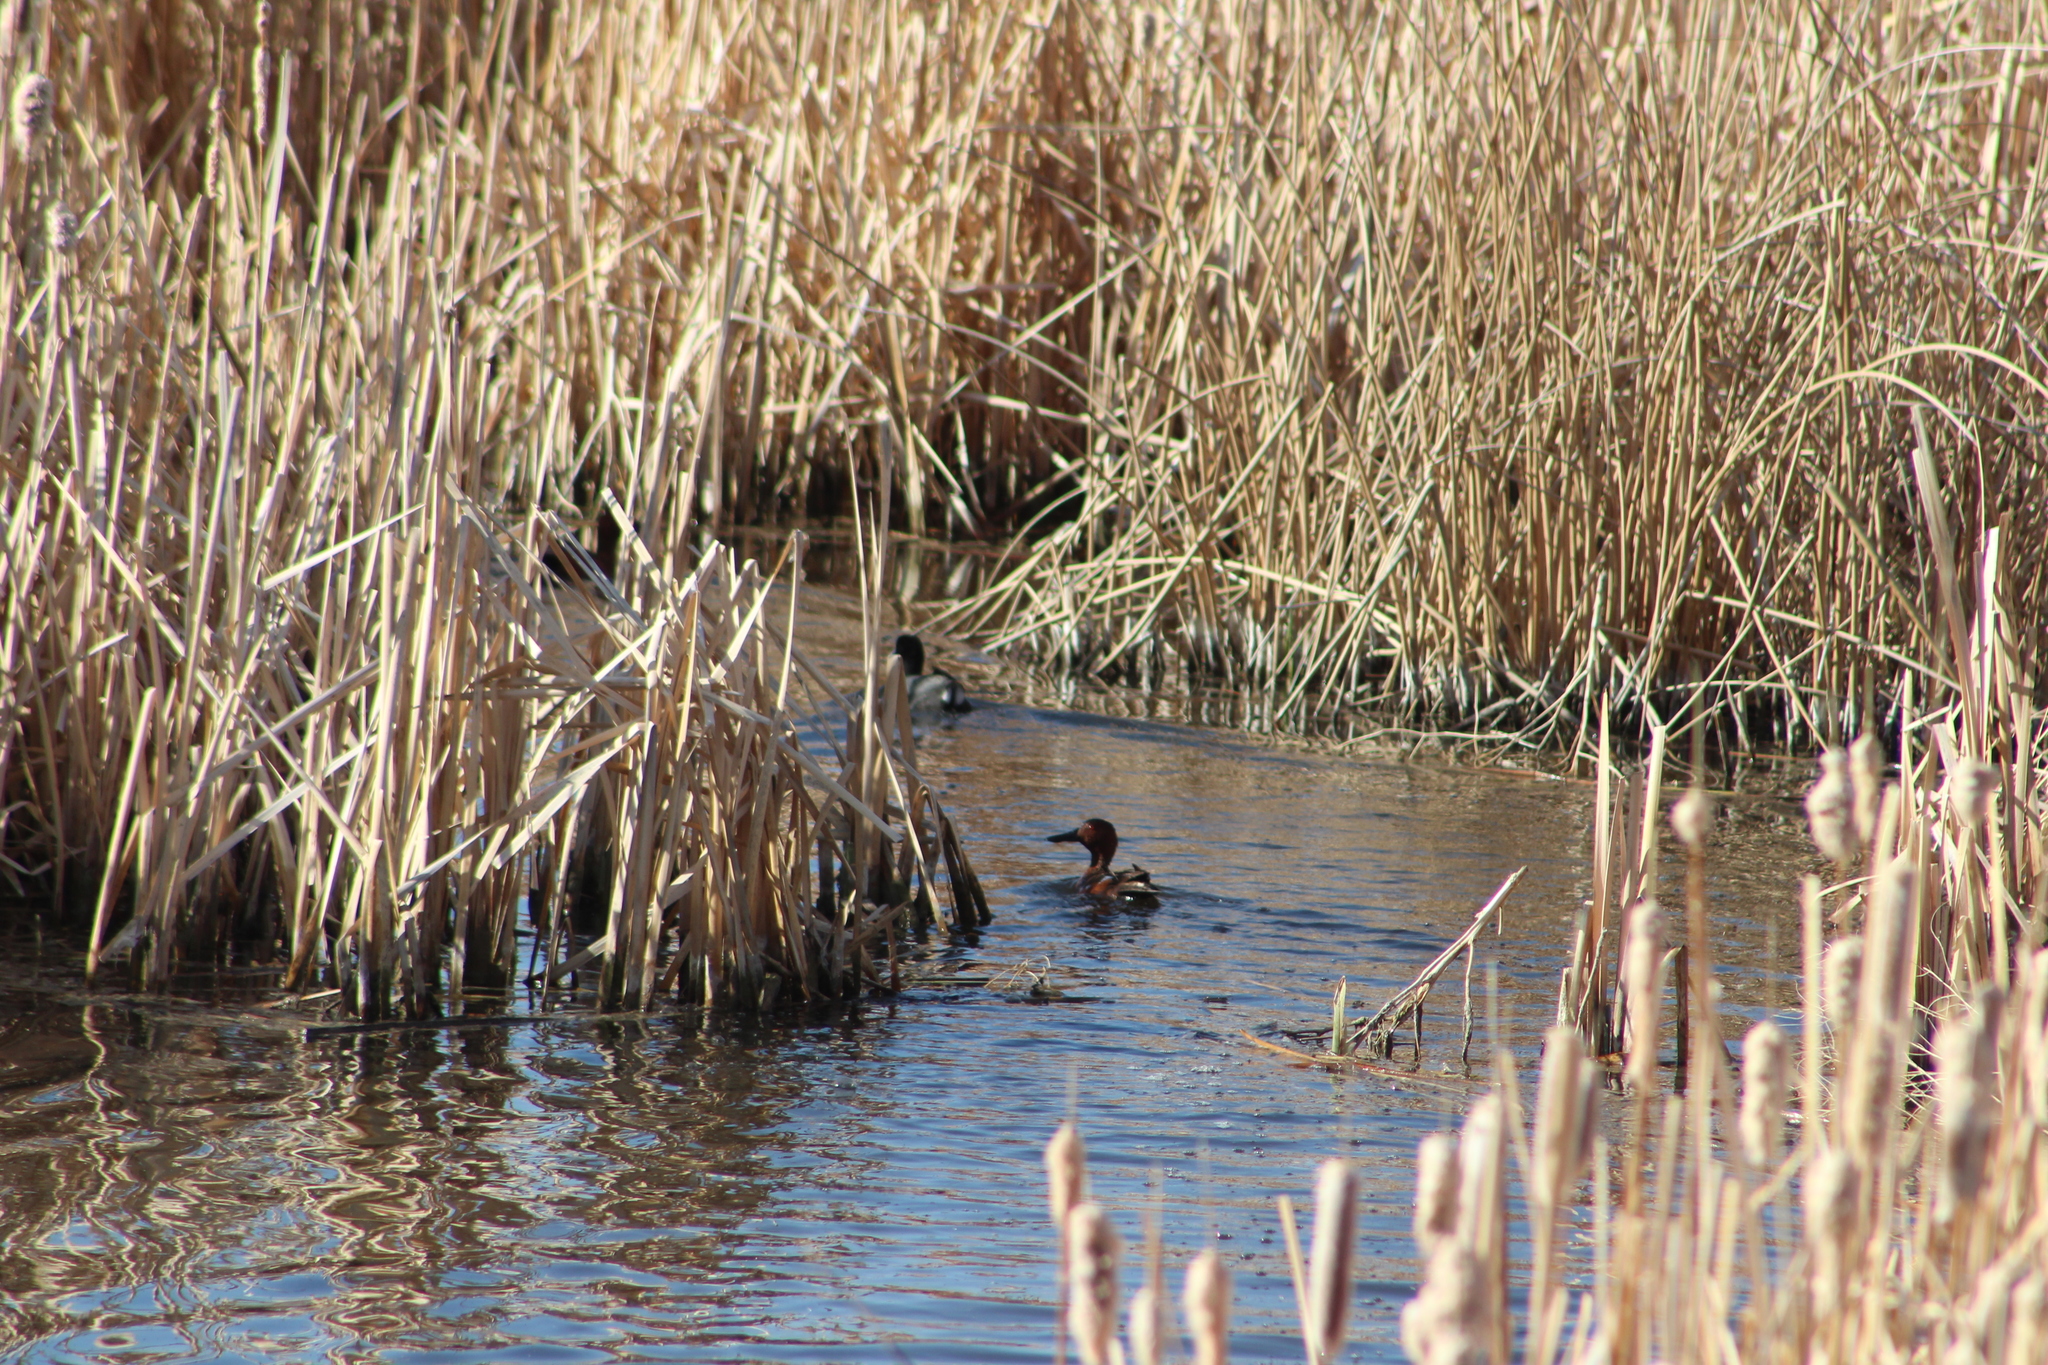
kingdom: Animalia
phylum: Chordata
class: Aves
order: Anseriformes
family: Anatidae
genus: Spatula
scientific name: Spatula cyanoptera
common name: Cinnamon teal
